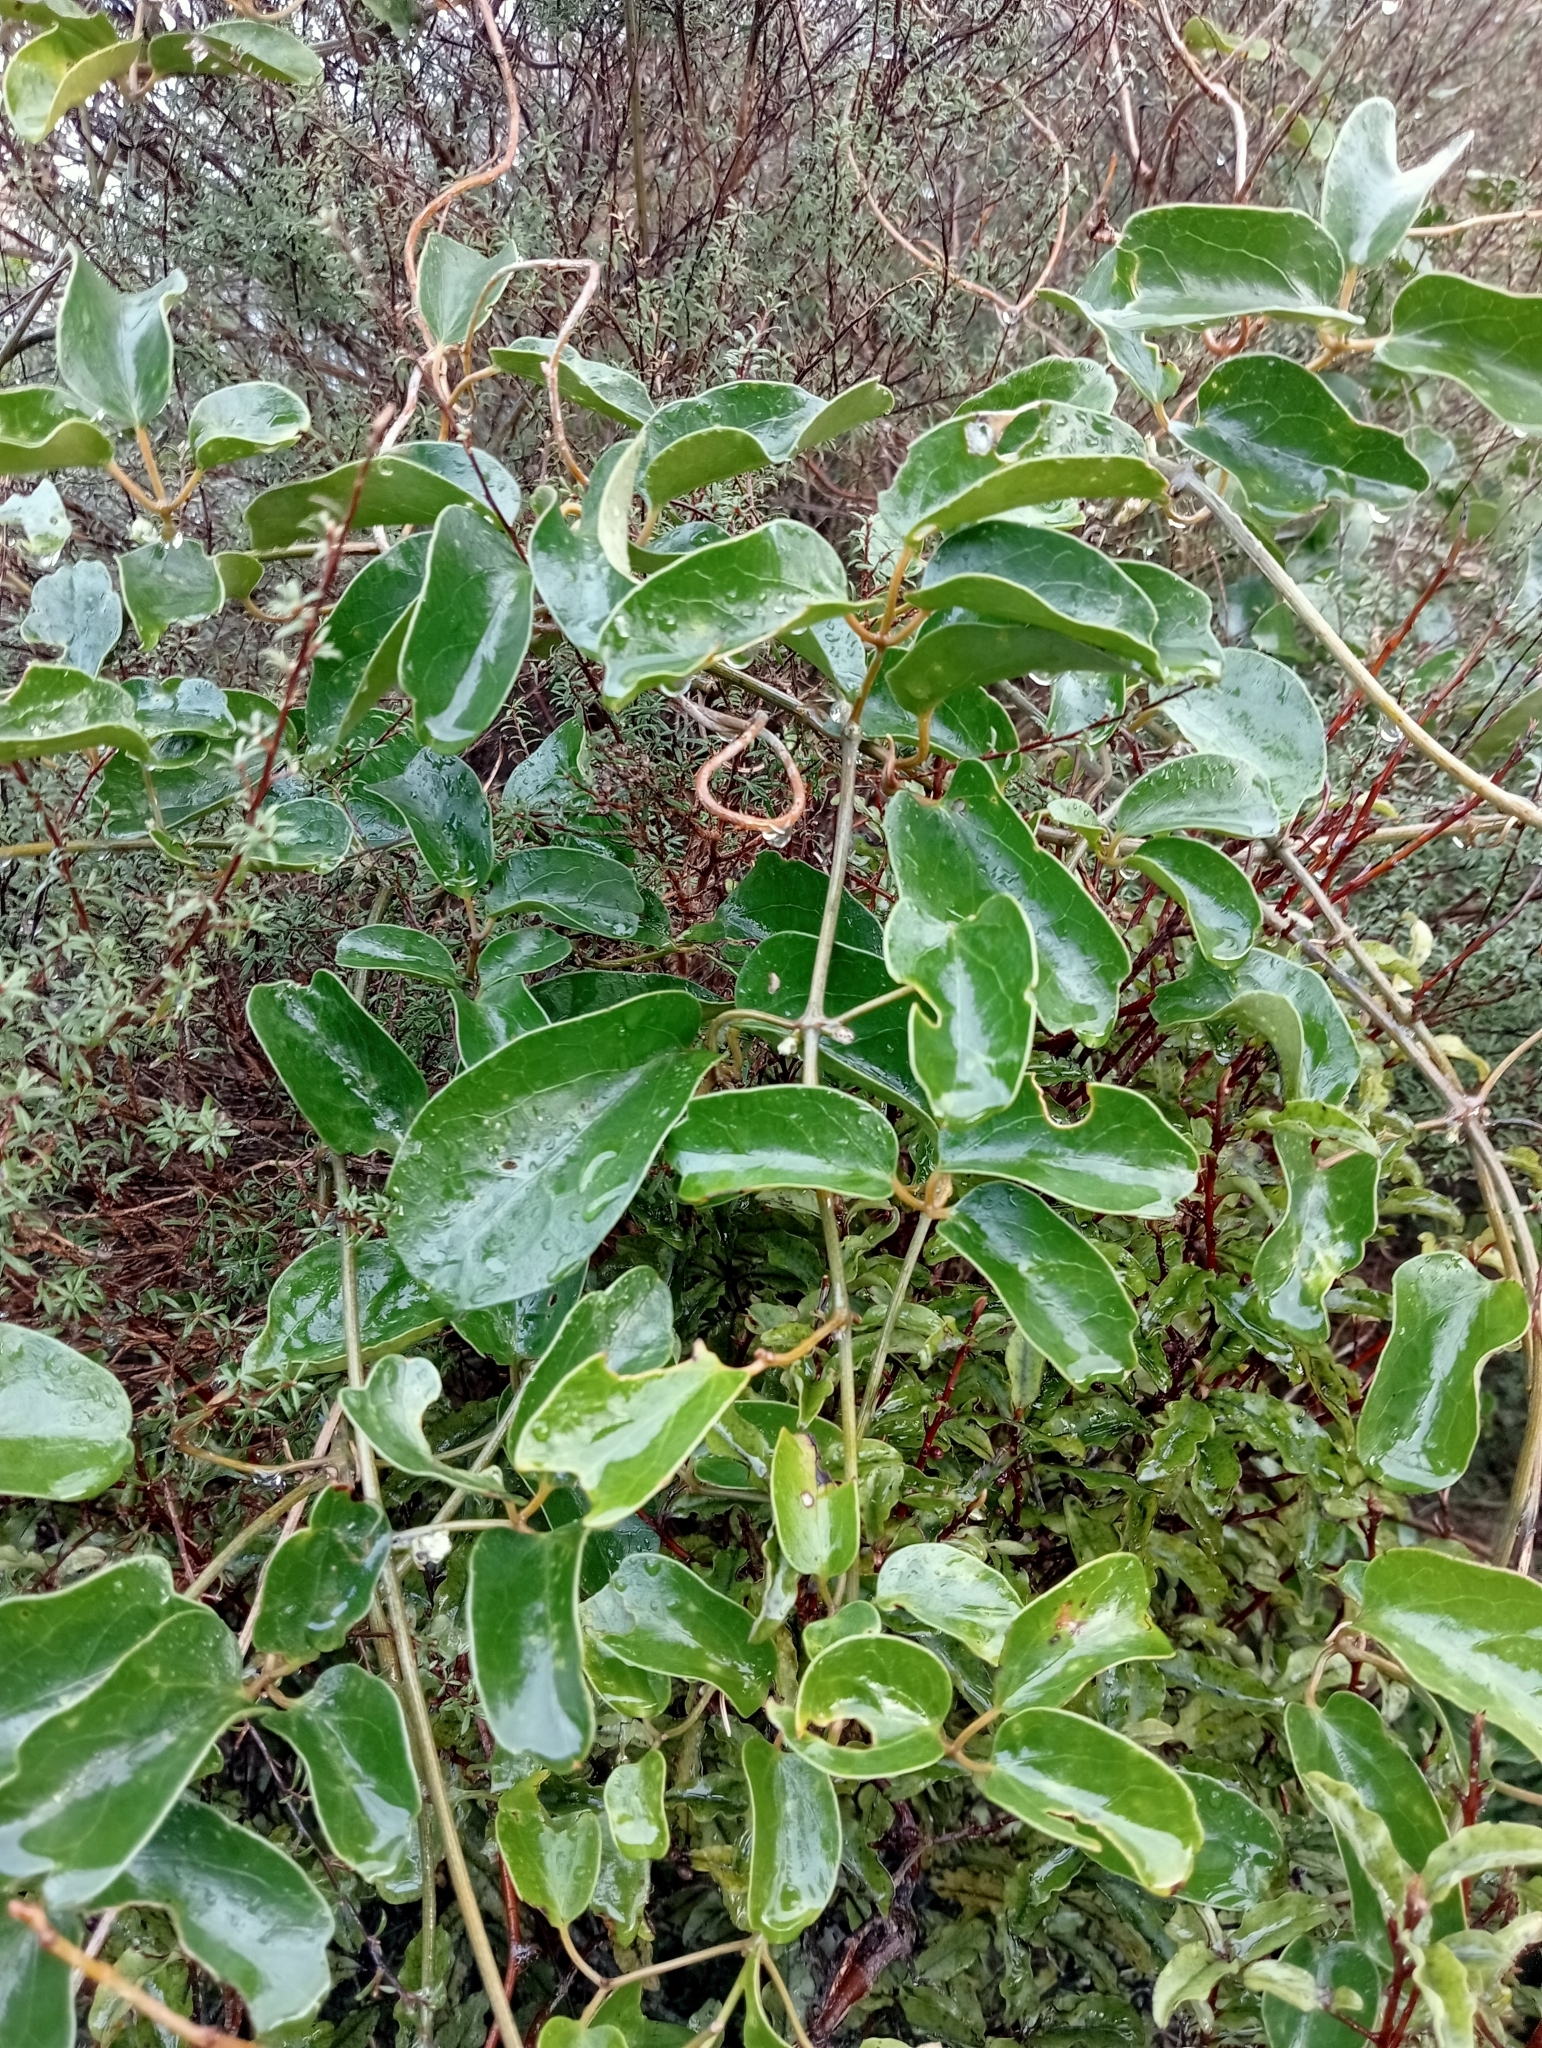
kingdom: Plantae
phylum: Tracheophyta
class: Magnoliopsida
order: Ranunculales
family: Ranunculaceae
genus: Clematis
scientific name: Clematis paniculata
